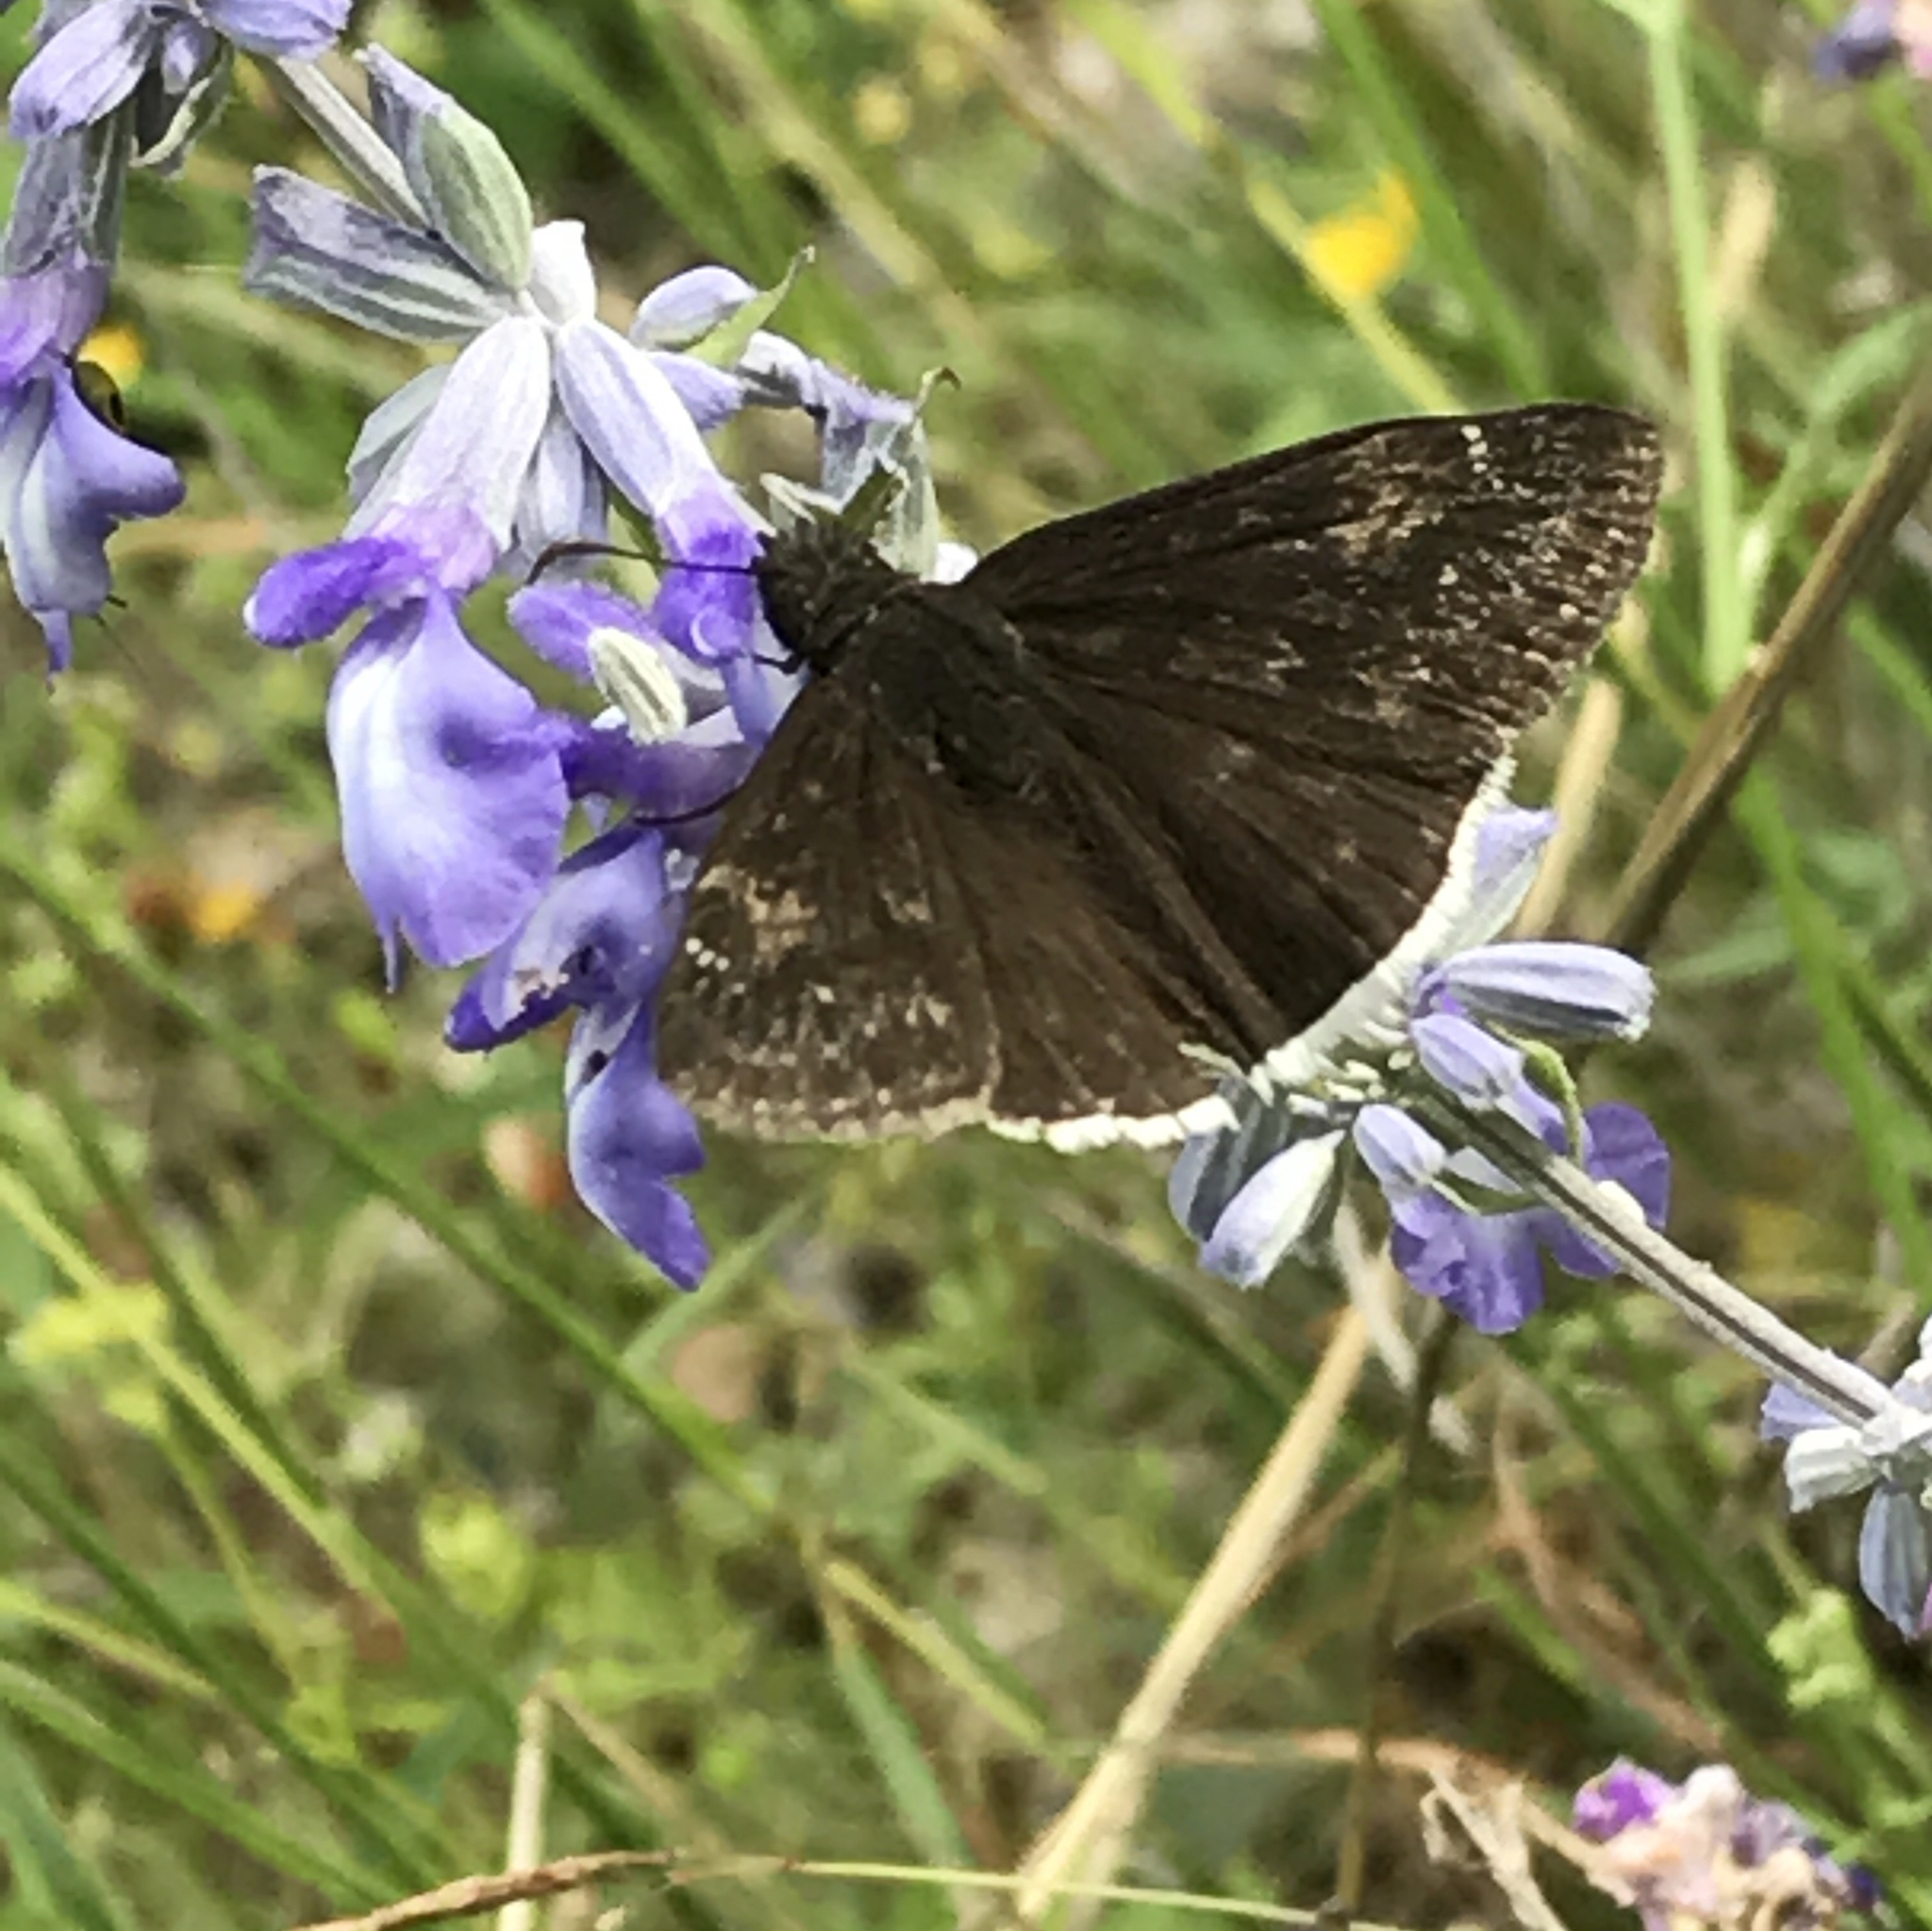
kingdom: Animalia
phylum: Arthropoda
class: Insecta
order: Lepidoptera
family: Hesperiidae
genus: Erynnis
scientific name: Erynnis funeralis
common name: Funereal duskywing
